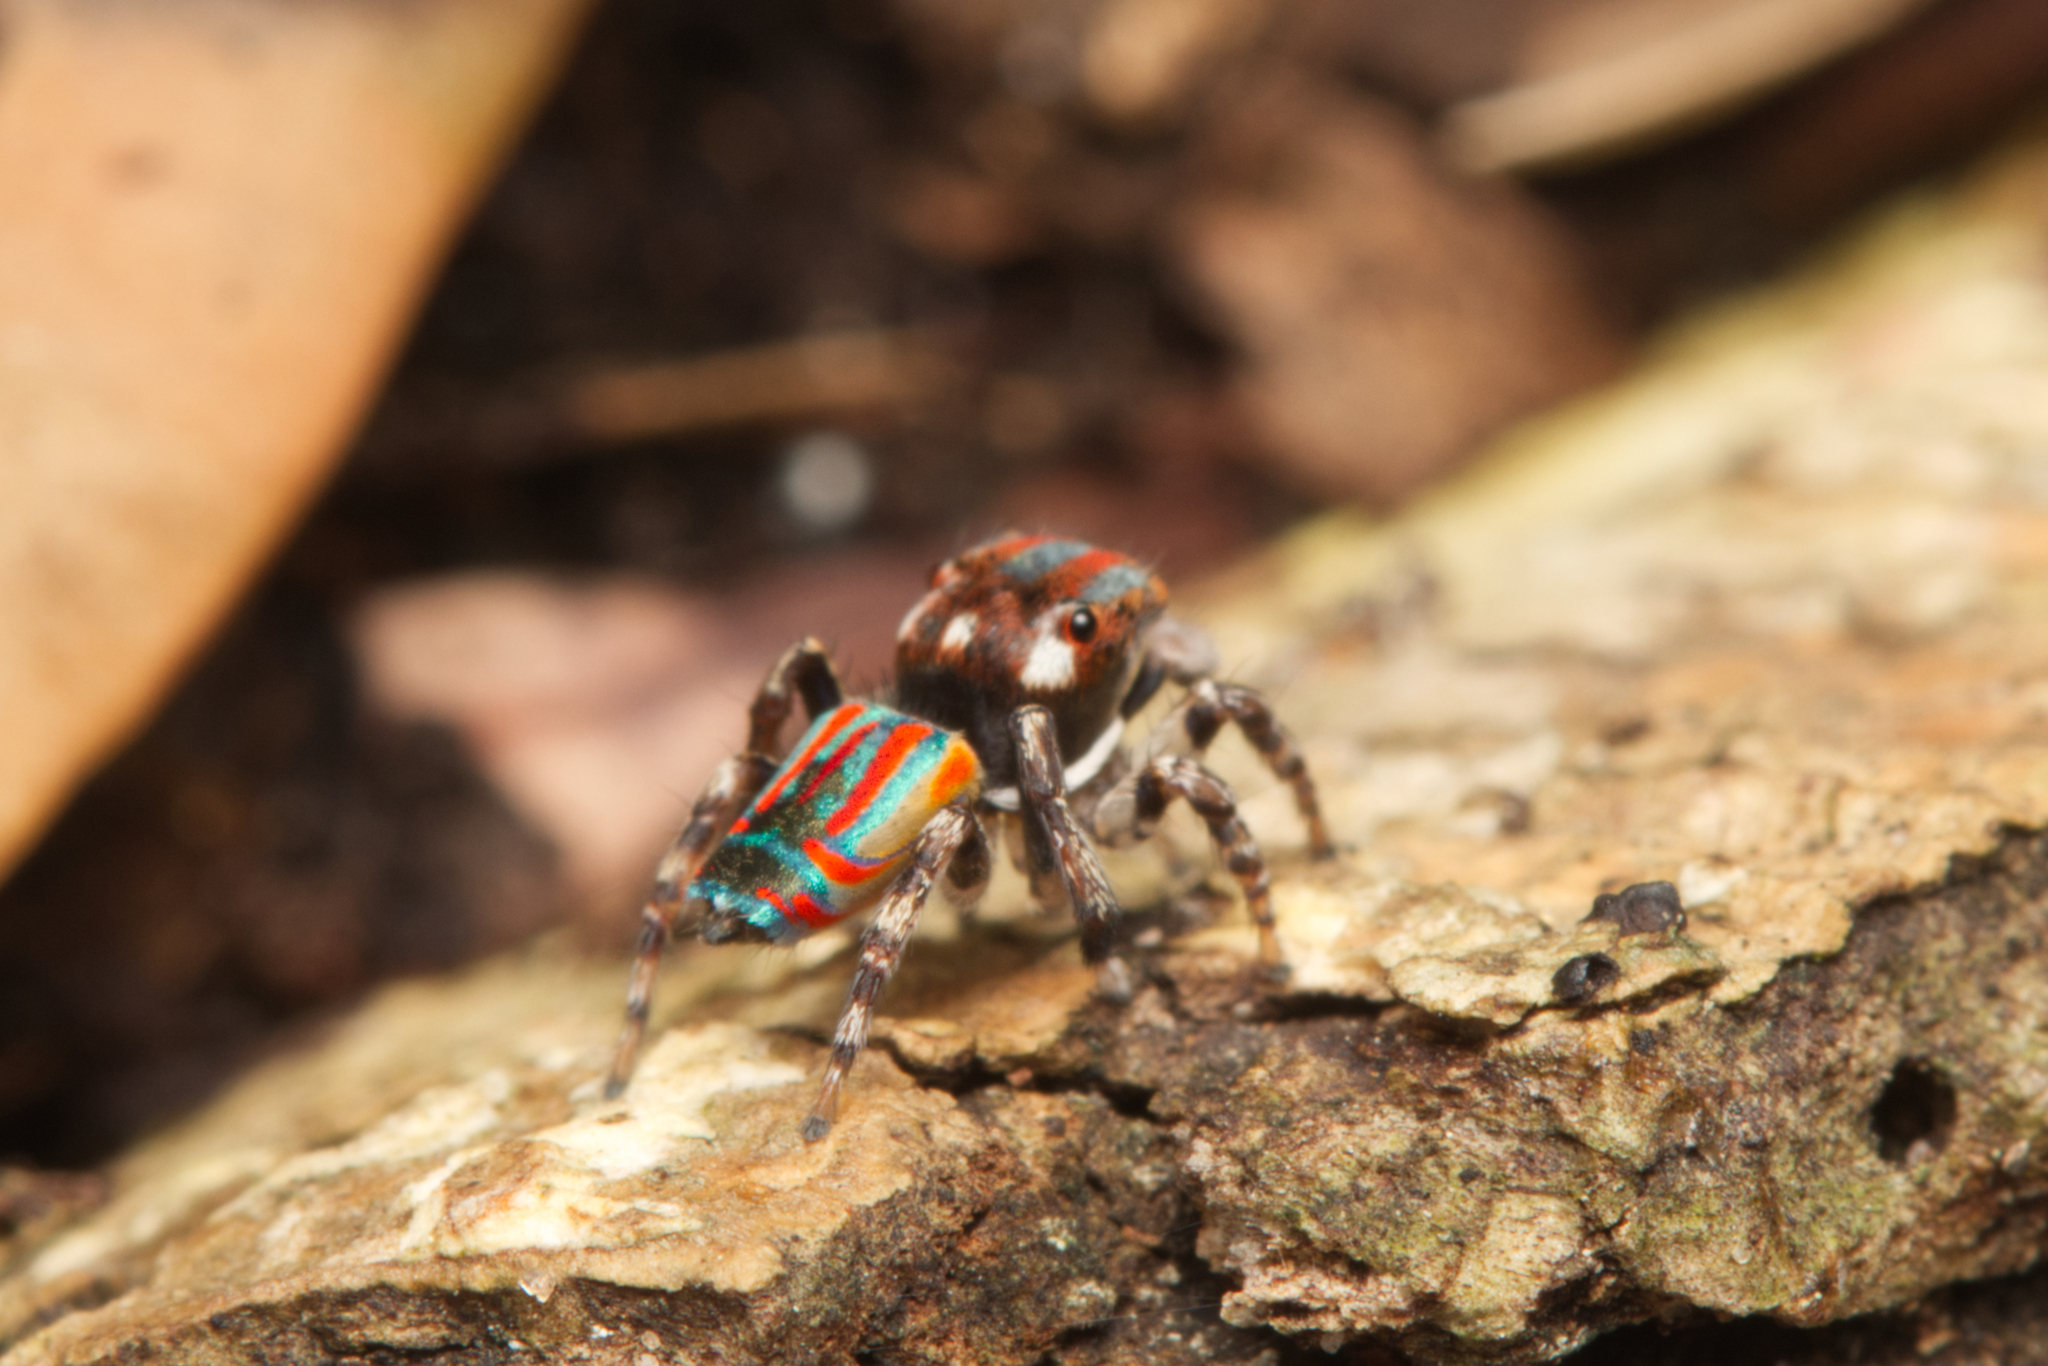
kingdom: Animalia
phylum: Arthropoda
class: Arachnida
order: Araneae
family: Salticidae
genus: Maratus
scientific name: Maratus volans
